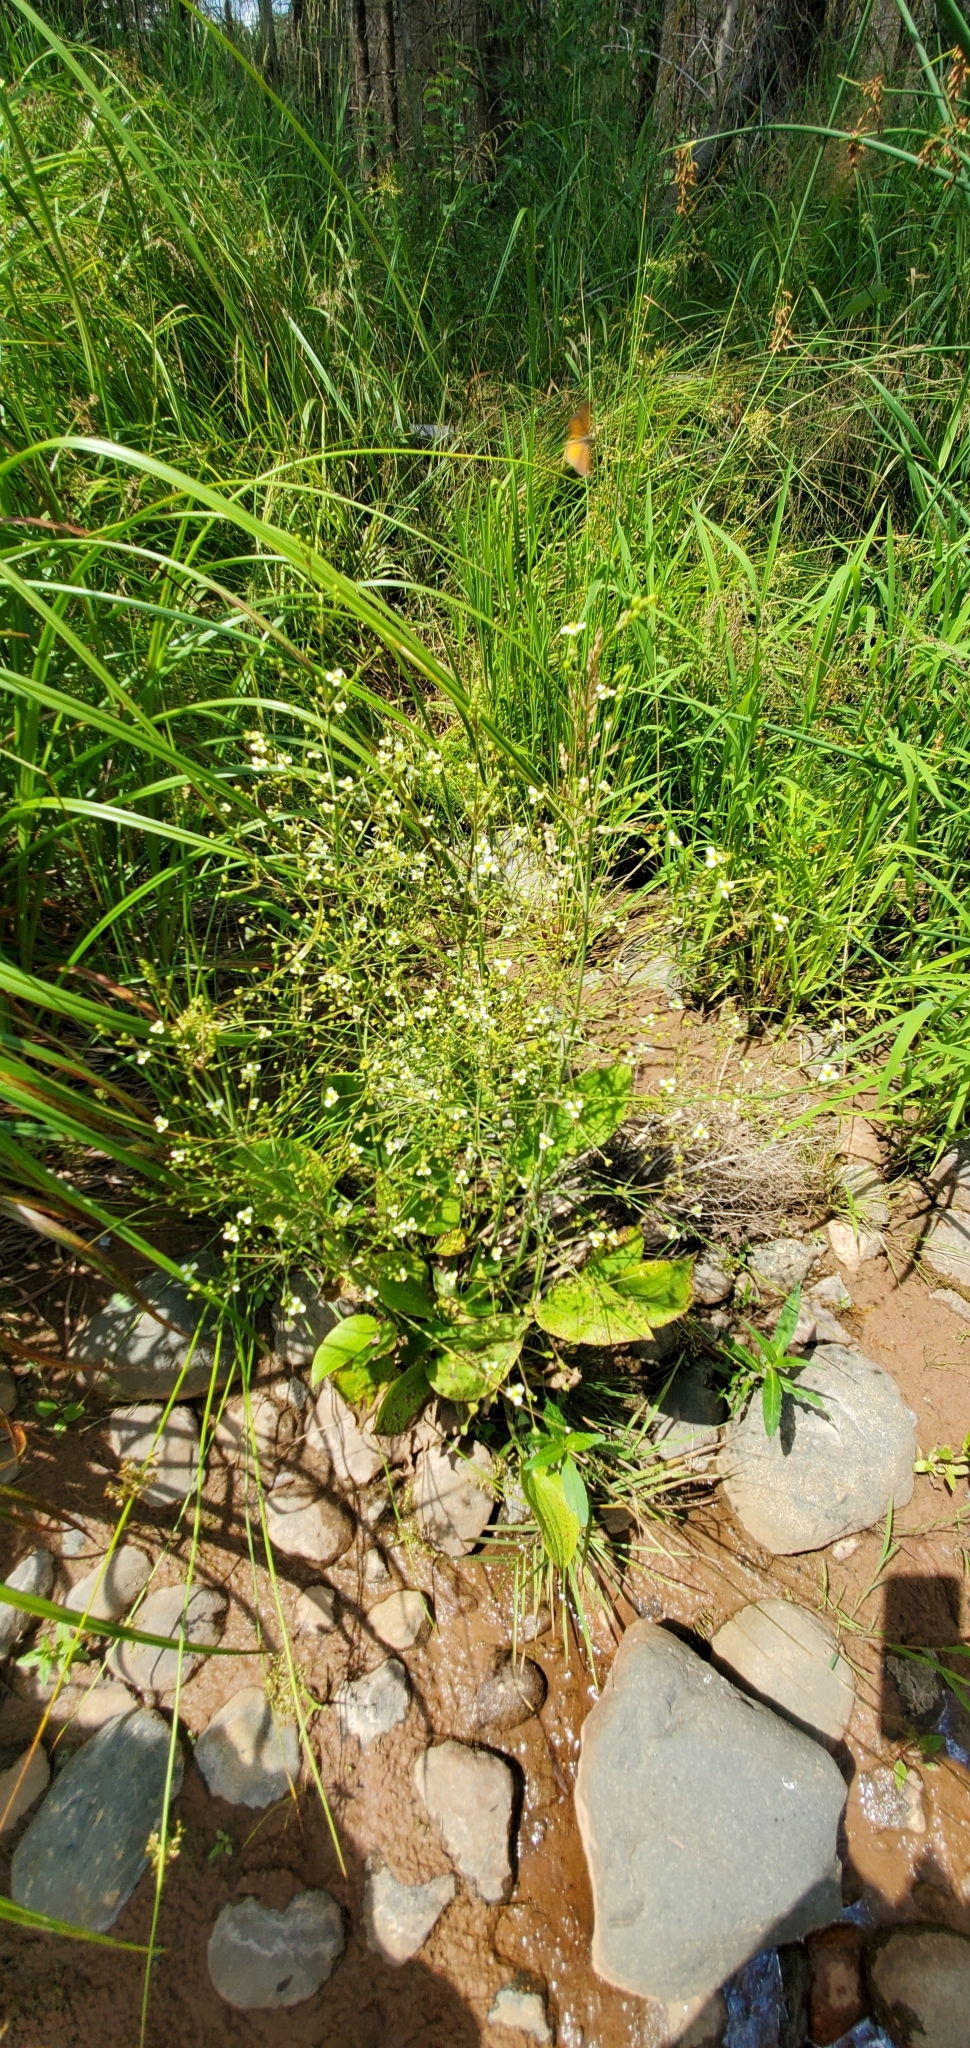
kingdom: Plantae
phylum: Tracheophyta
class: Liliopsida
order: Alismatales
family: Alismataceae
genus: Alisma
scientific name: Alisma triviale
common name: Northern water-plantain
